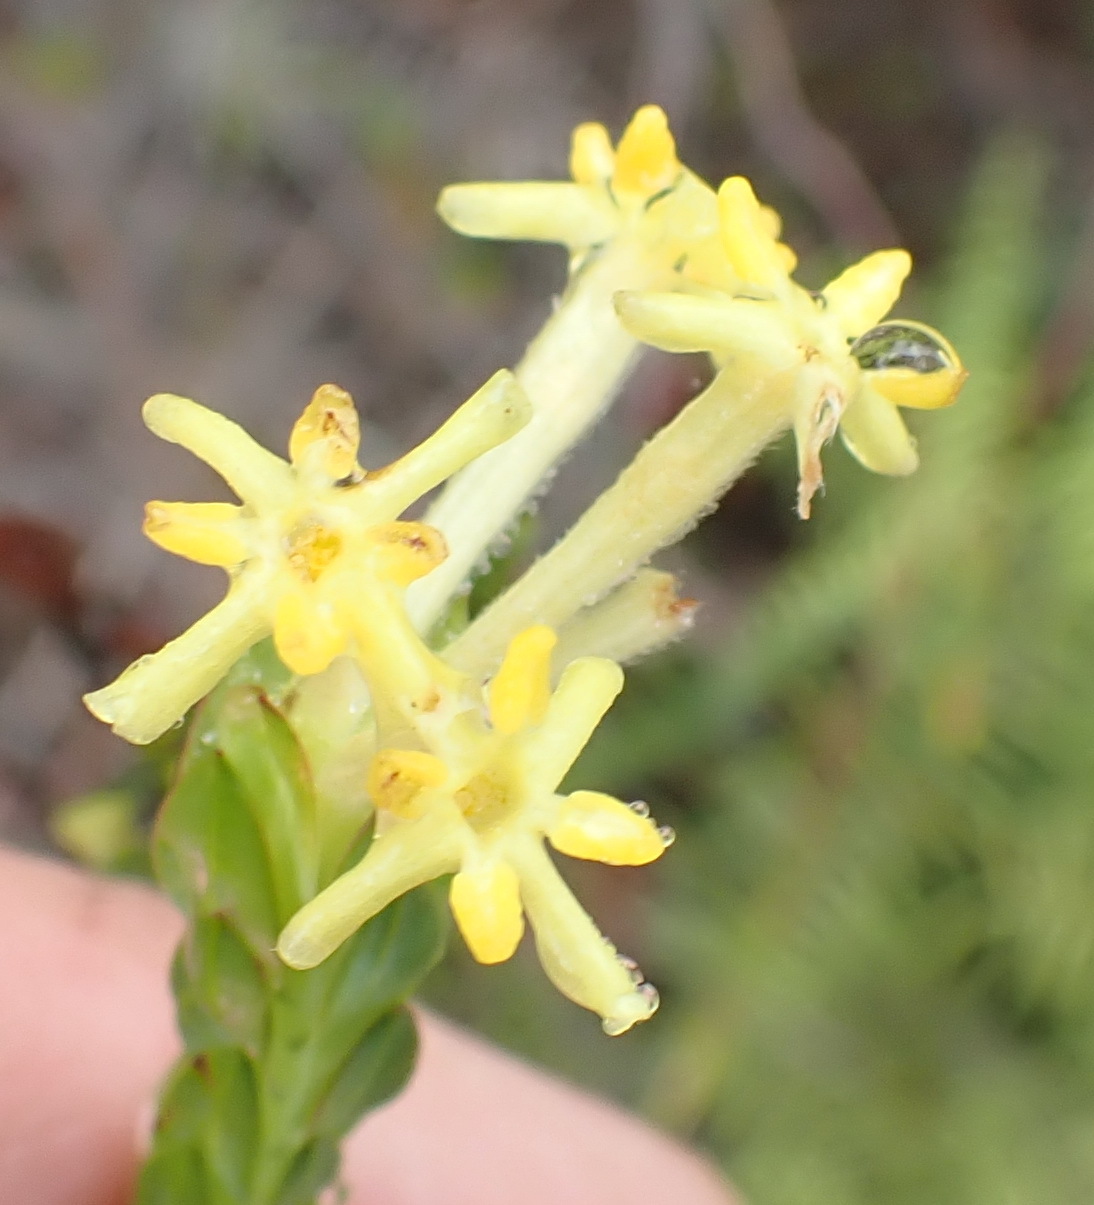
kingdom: Plantae
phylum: Tracheophyta
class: Magnoliopsida
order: Malvales
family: Thymelaeaceae
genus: Gnidia
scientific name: Gnidia oppositifolia
